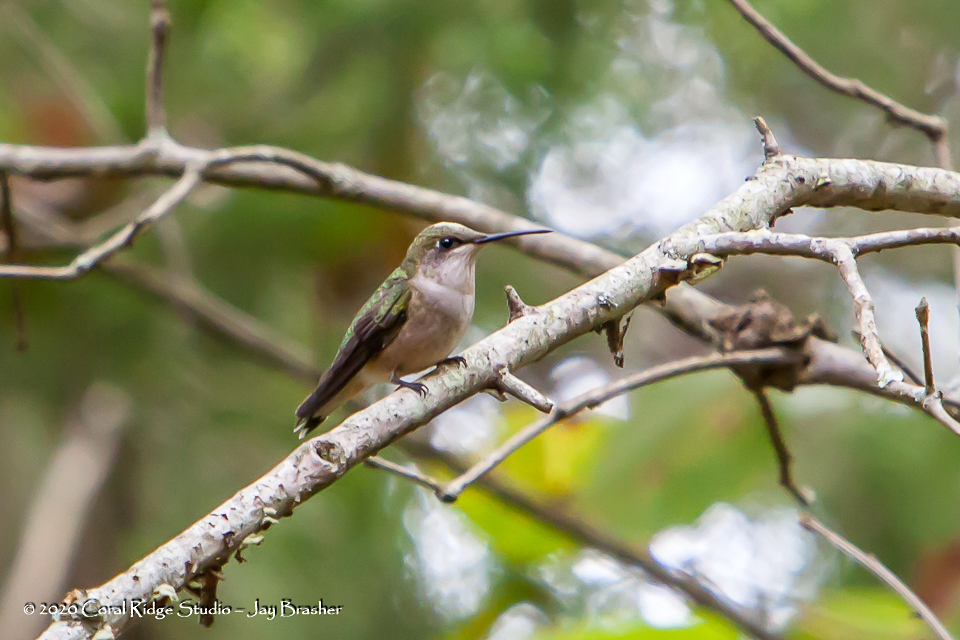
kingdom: Animalia
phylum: Chordata
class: Aves
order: Apodiformes
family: Trochilidae
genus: Archilochus
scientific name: Archilochus colubris
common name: Ruby-throated hummingbird
